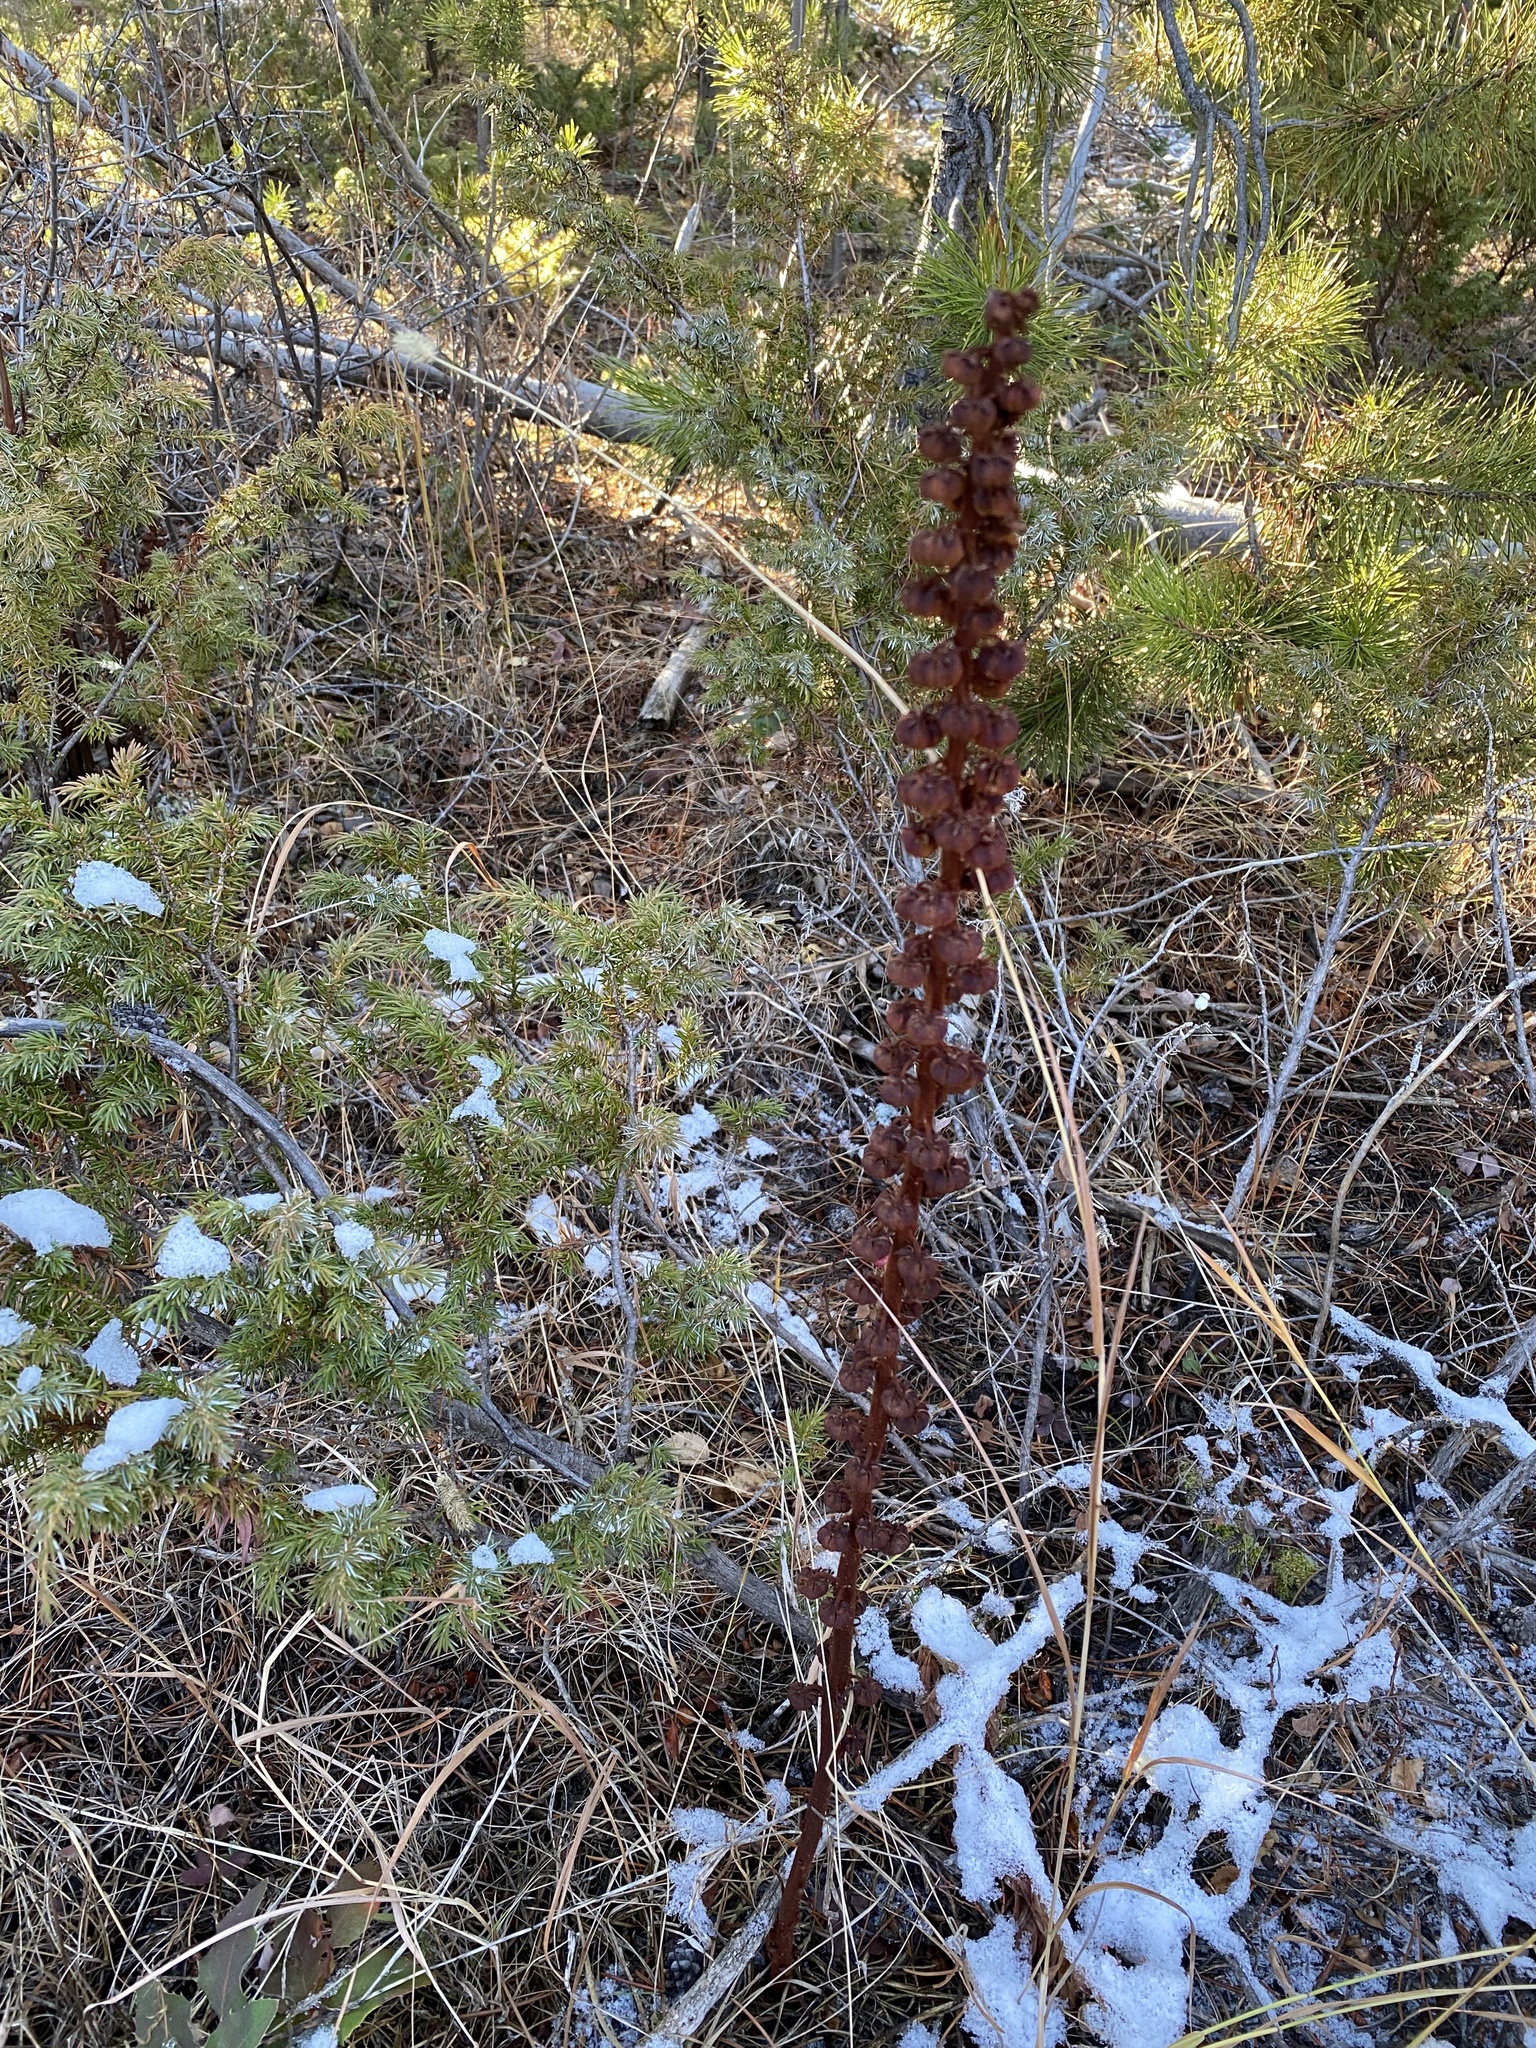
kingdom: Plantae
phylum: Tracheophyta
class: Magnoliopsida
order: Ericales
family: Ericaceae
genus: Pterospora
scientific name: Pterospora andromedea
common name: Giant bird's-nest
